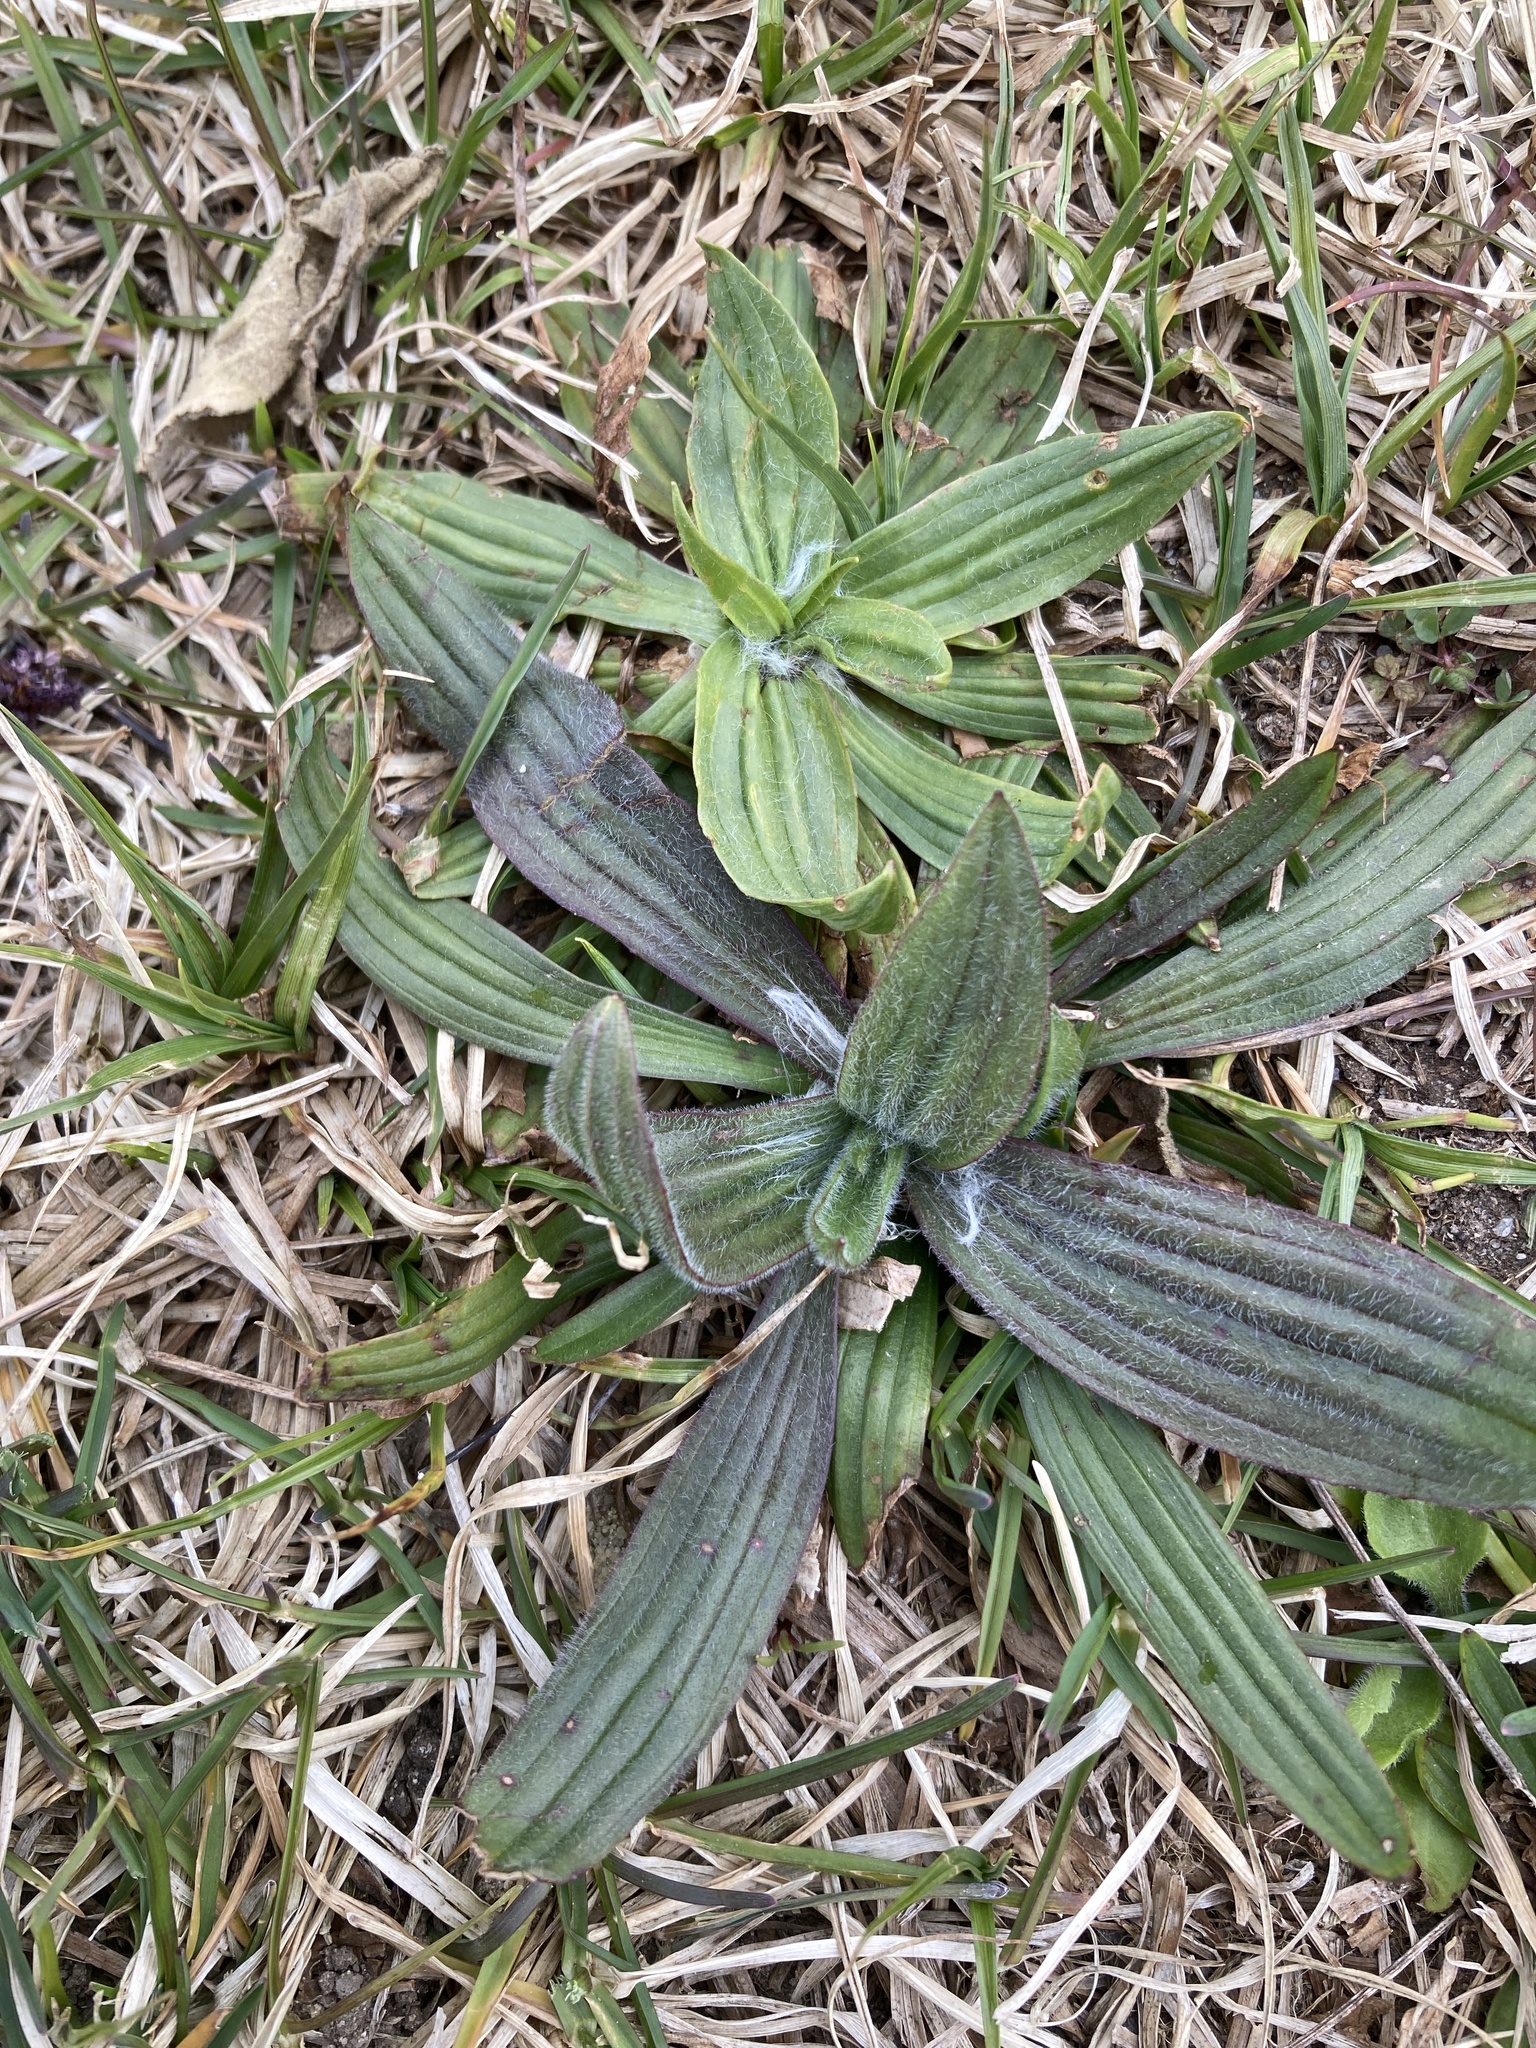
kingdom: Plantae
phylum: Tracheophyta
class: Magnoliopsida
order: Lamiales
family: Plantaginaceae
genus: Plantago
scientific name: Plantago lanceolata
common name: Ribwort plantain
